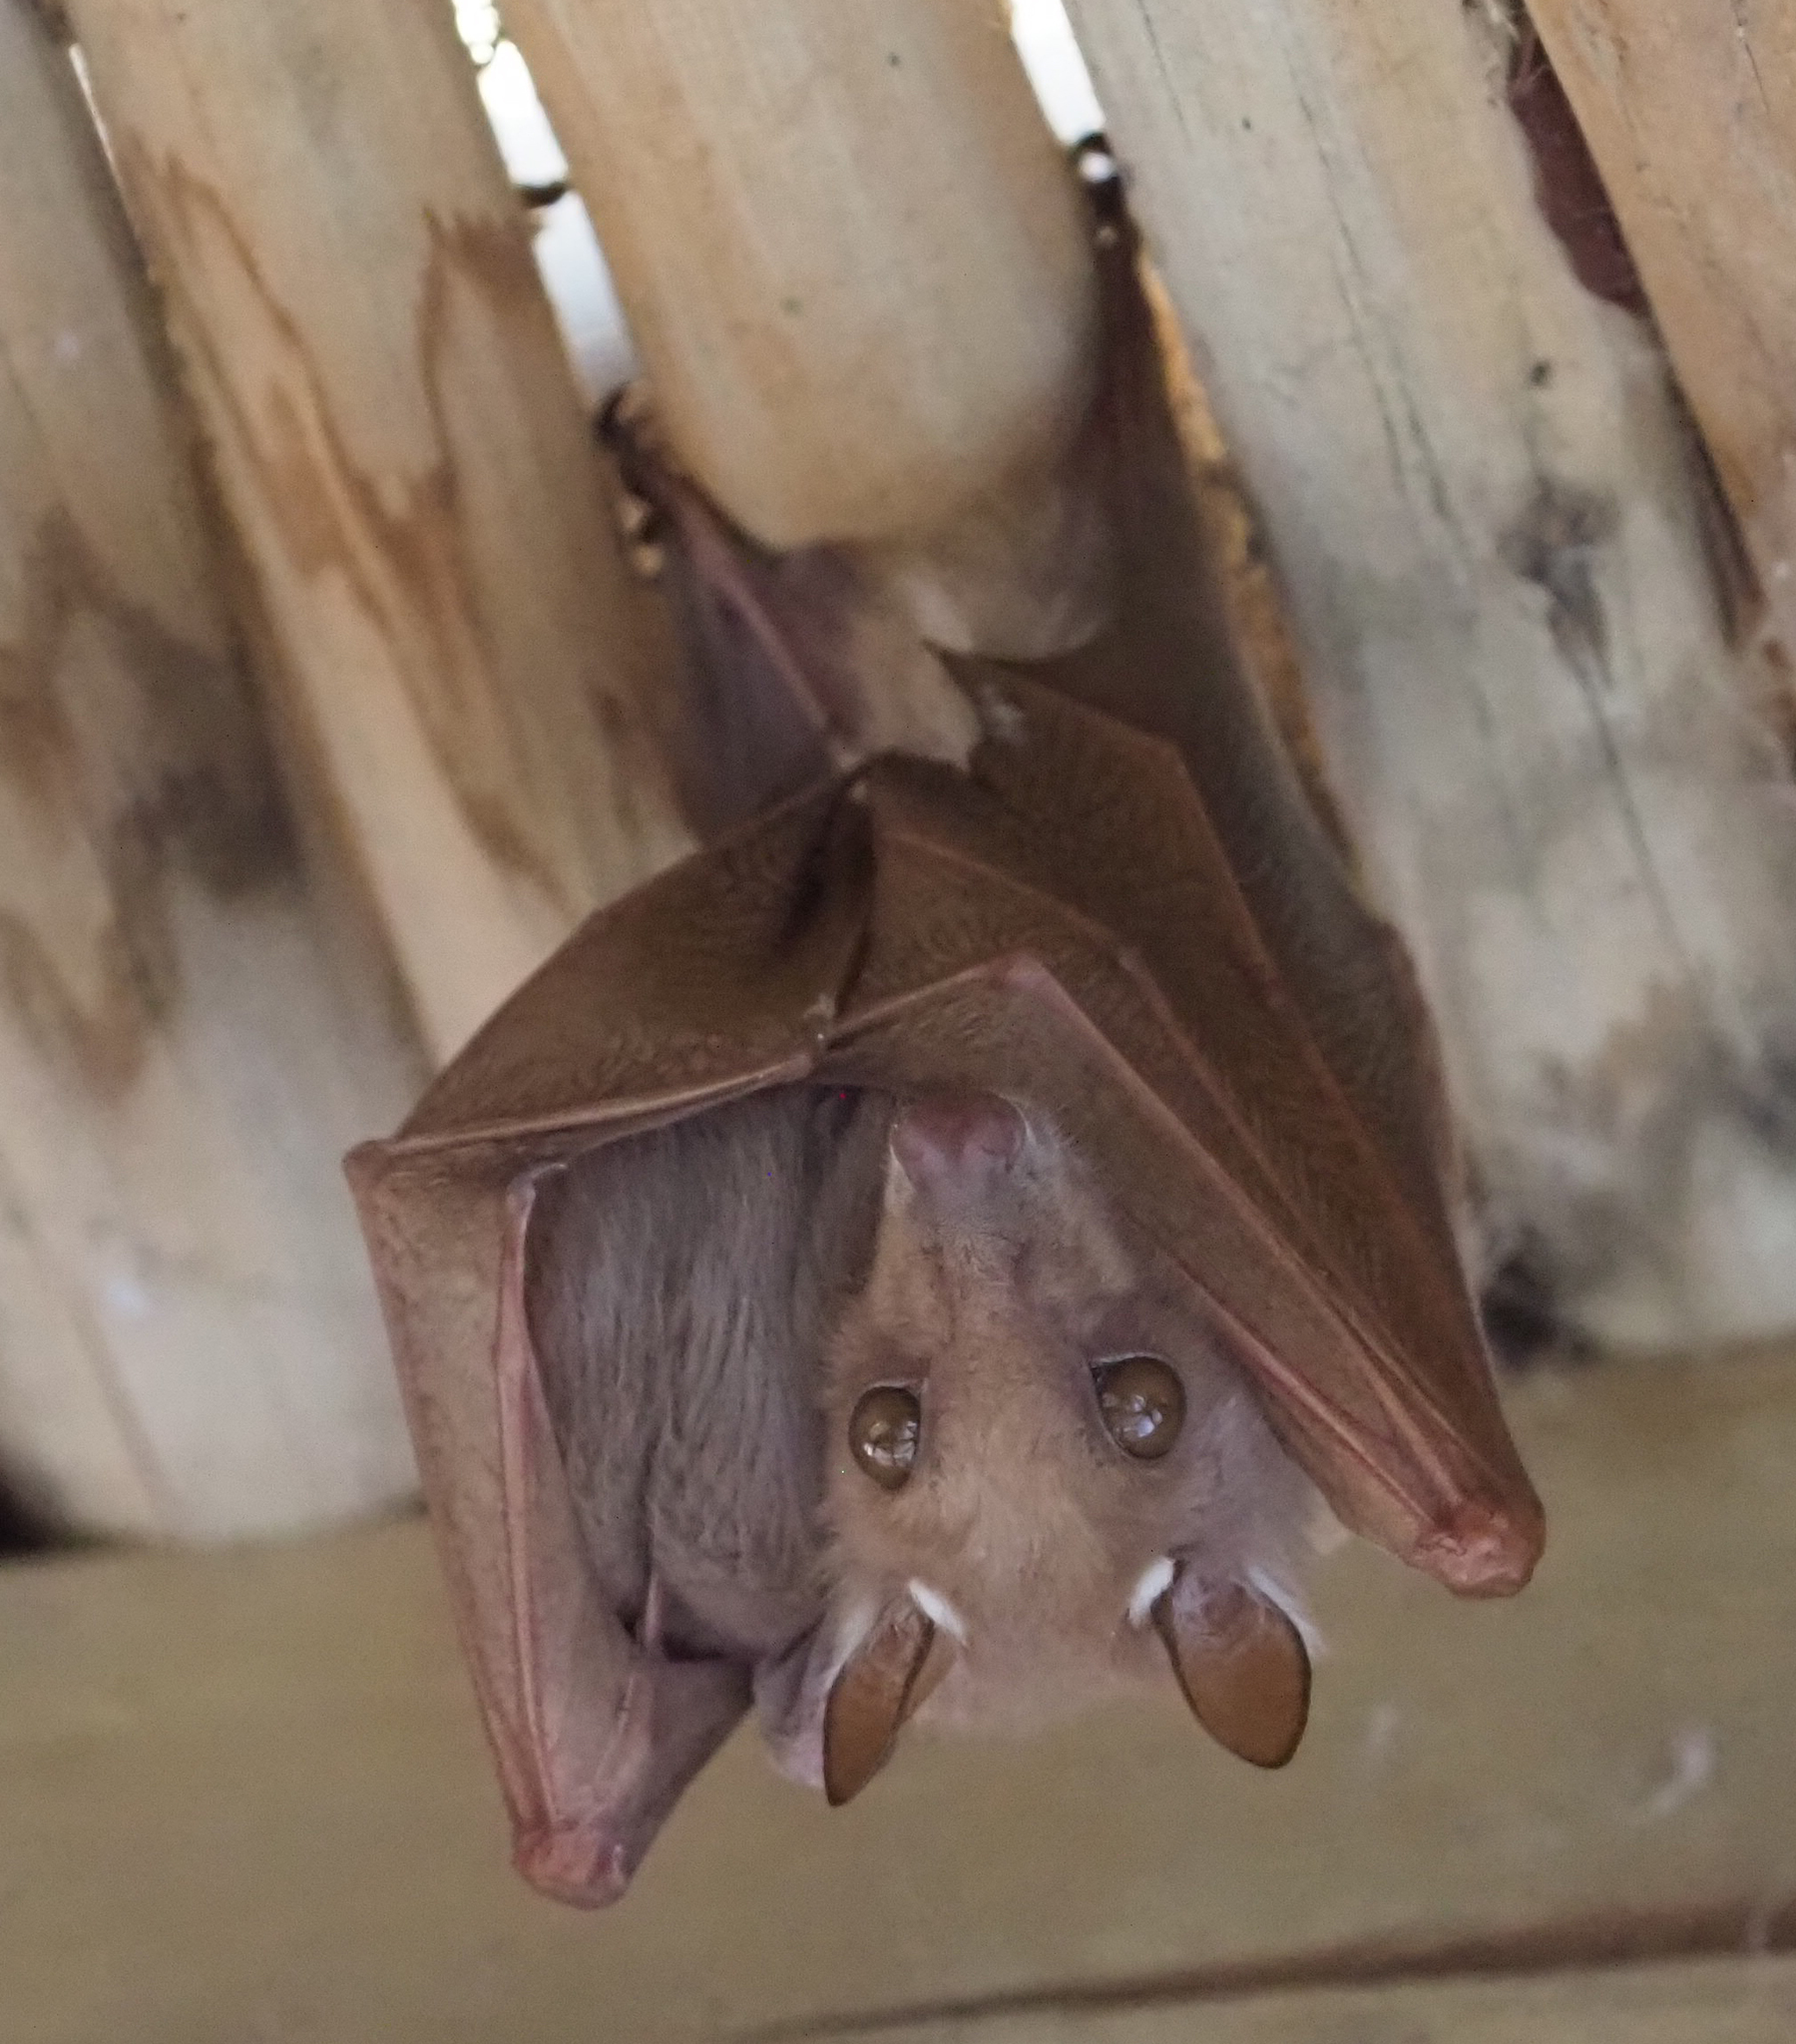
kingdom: Animalia
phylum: Chordata
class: Mammalia
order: Chiroptera
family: Pteropodidae
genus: Epomophorus
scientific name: Epomophorus crypturus
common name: Smaller epauletted fruit bat
